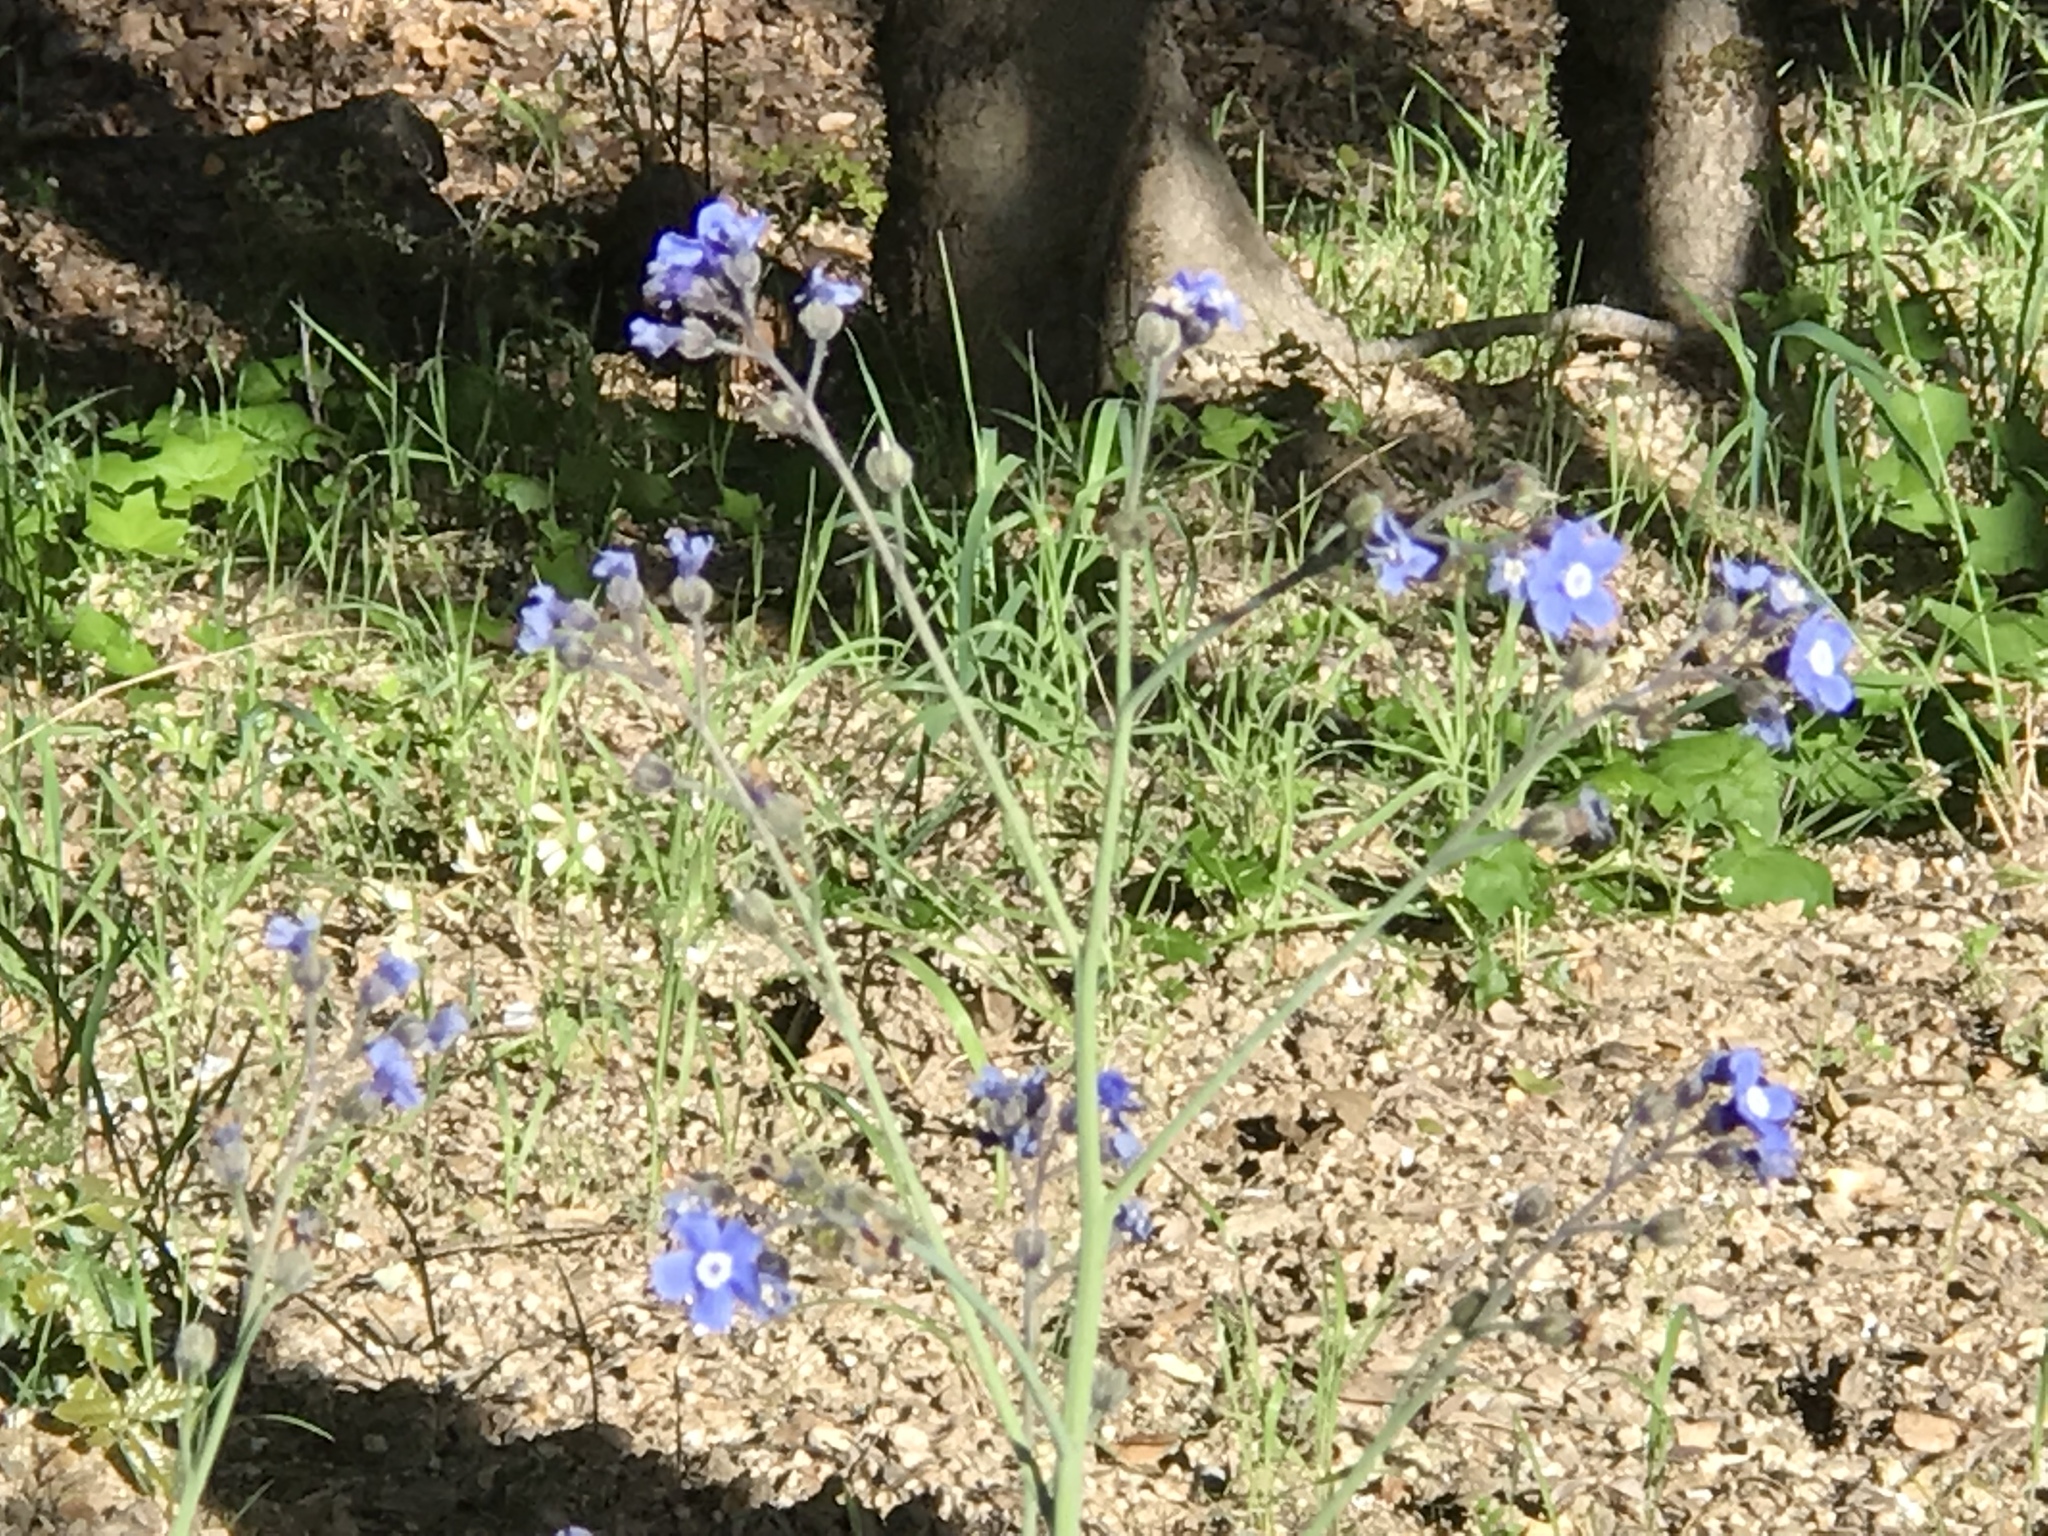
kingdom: Plantae
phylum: Tracheophyta
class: Magnoliopsida
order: Boraginales
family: Boraginaceae
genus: Adelinia
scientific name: Adelinia grande
